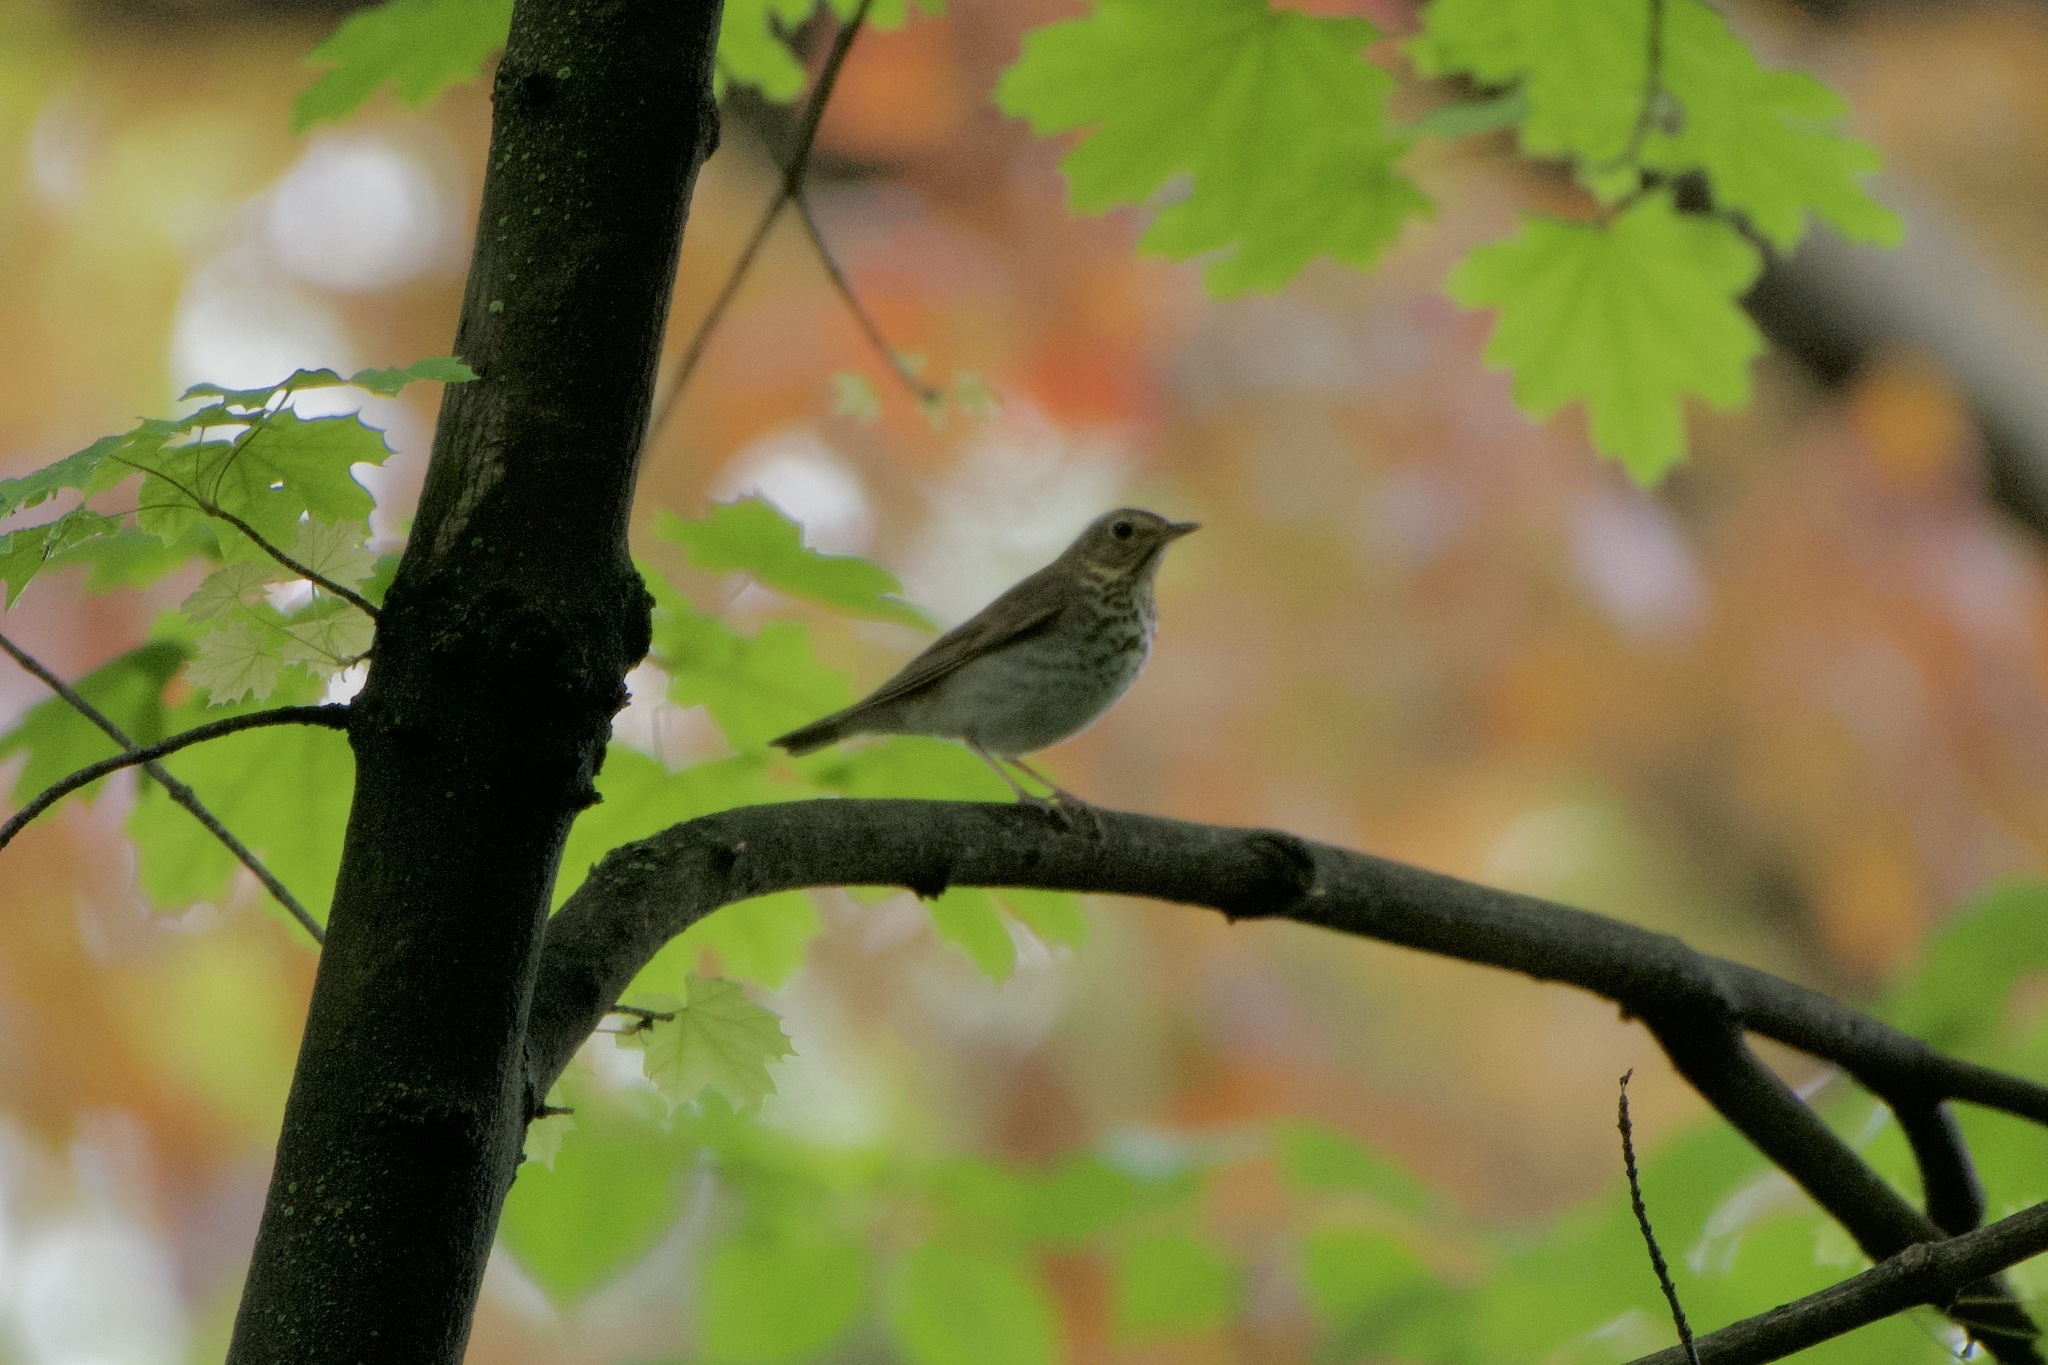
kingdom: Animalia
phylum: Chordata
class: Aves
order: Passeriformes
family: Turdidae
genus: Catharus
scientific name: Catharus ustulatus
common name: Swainson's thrush
